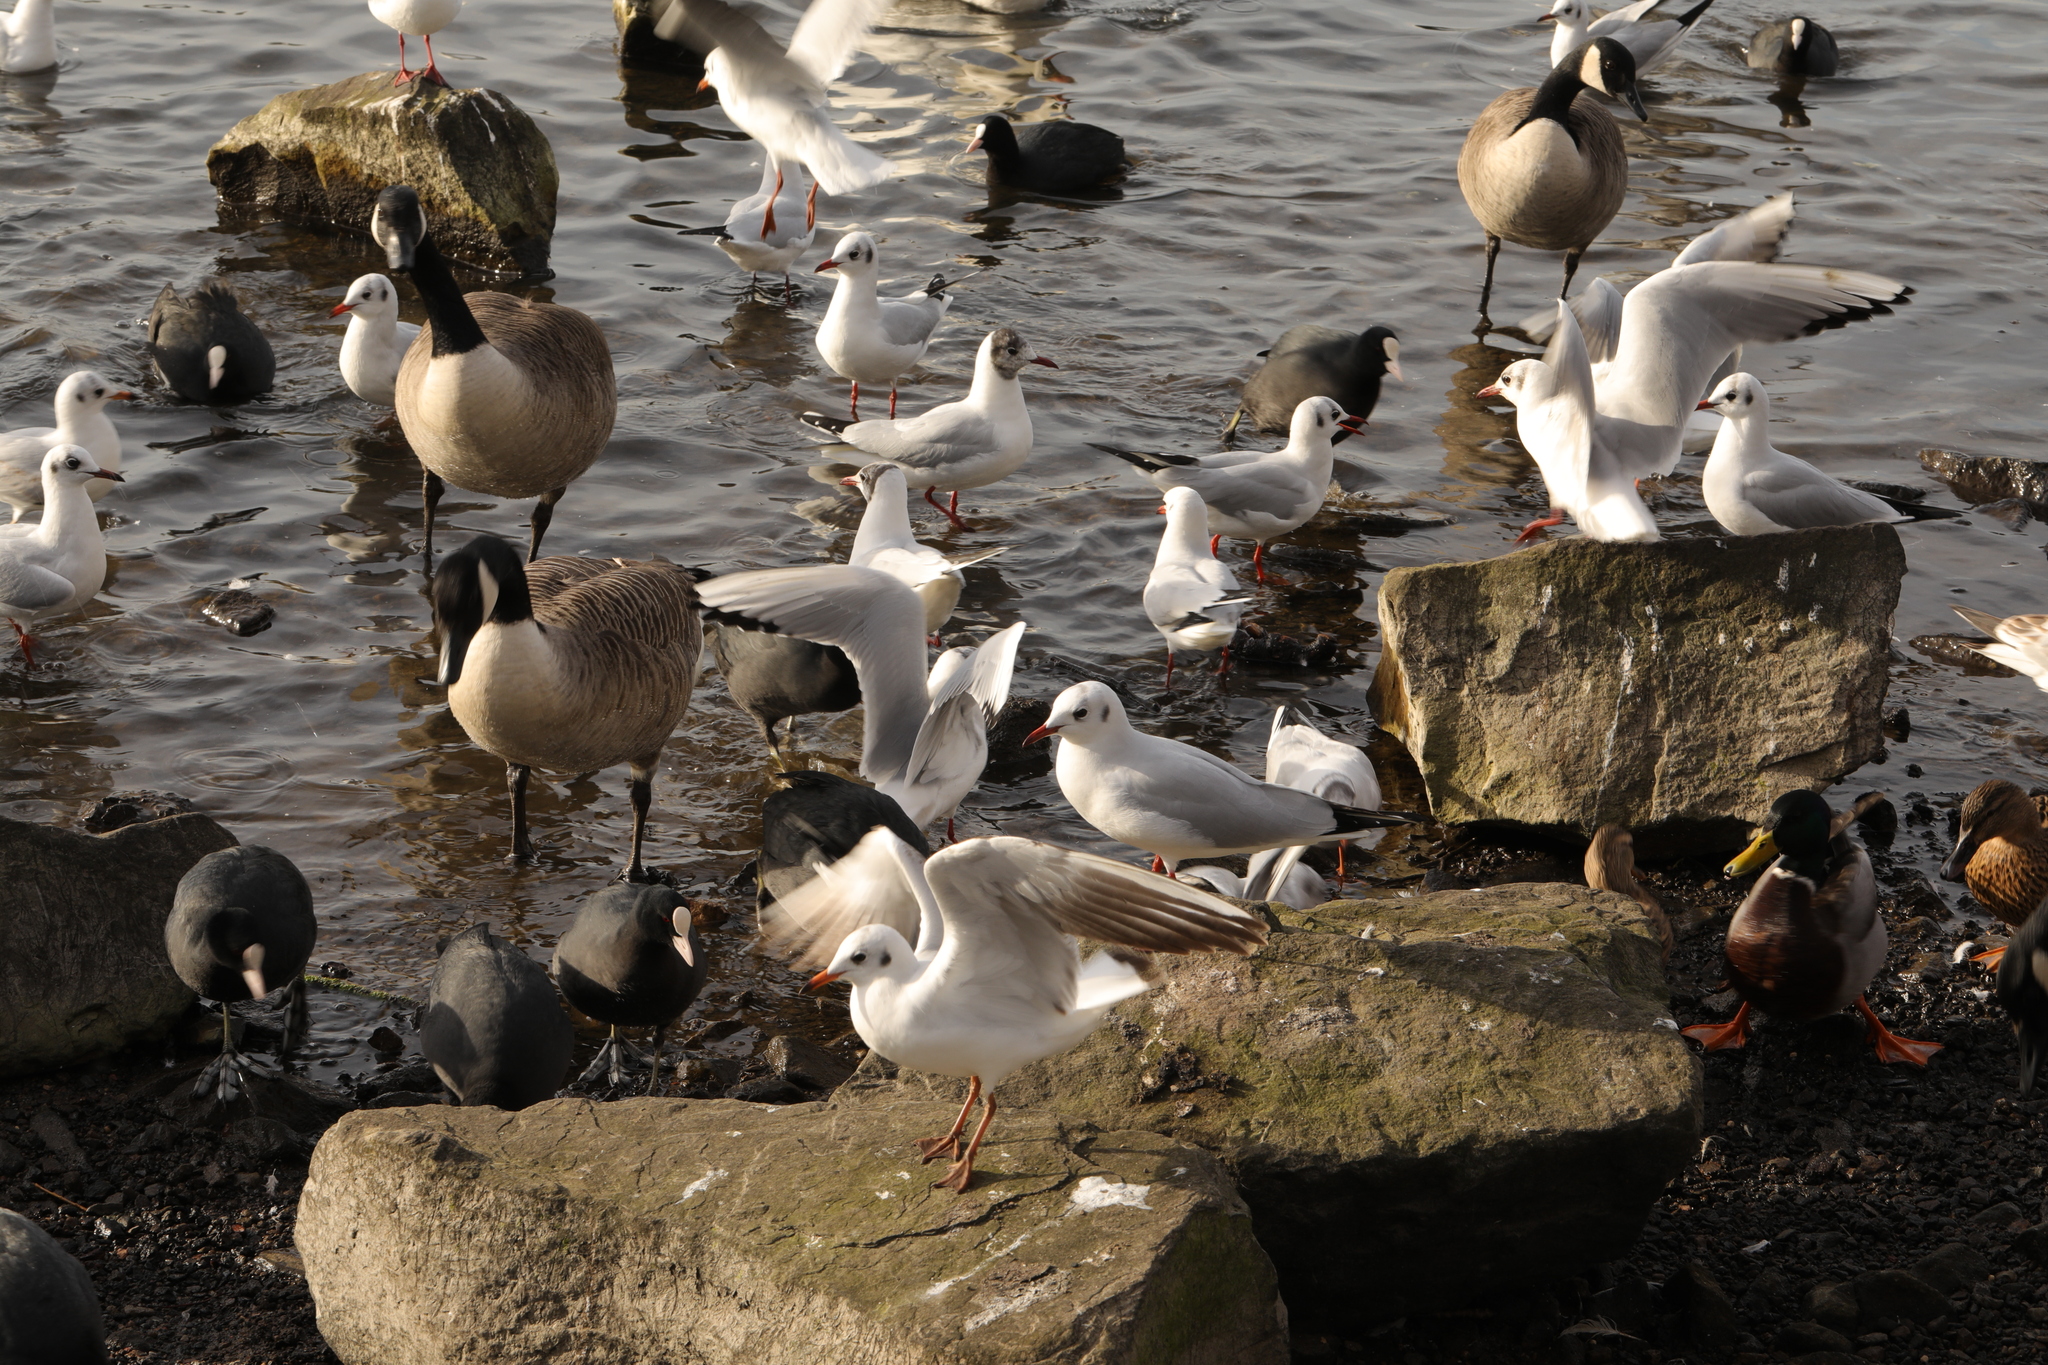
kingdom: Animalia
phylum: Chordata
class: Aves
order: Charadriiformes
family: Laridae
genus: Chroicocephalus
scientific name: Chroicocephalus ridibundus
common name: Black-headed gull
